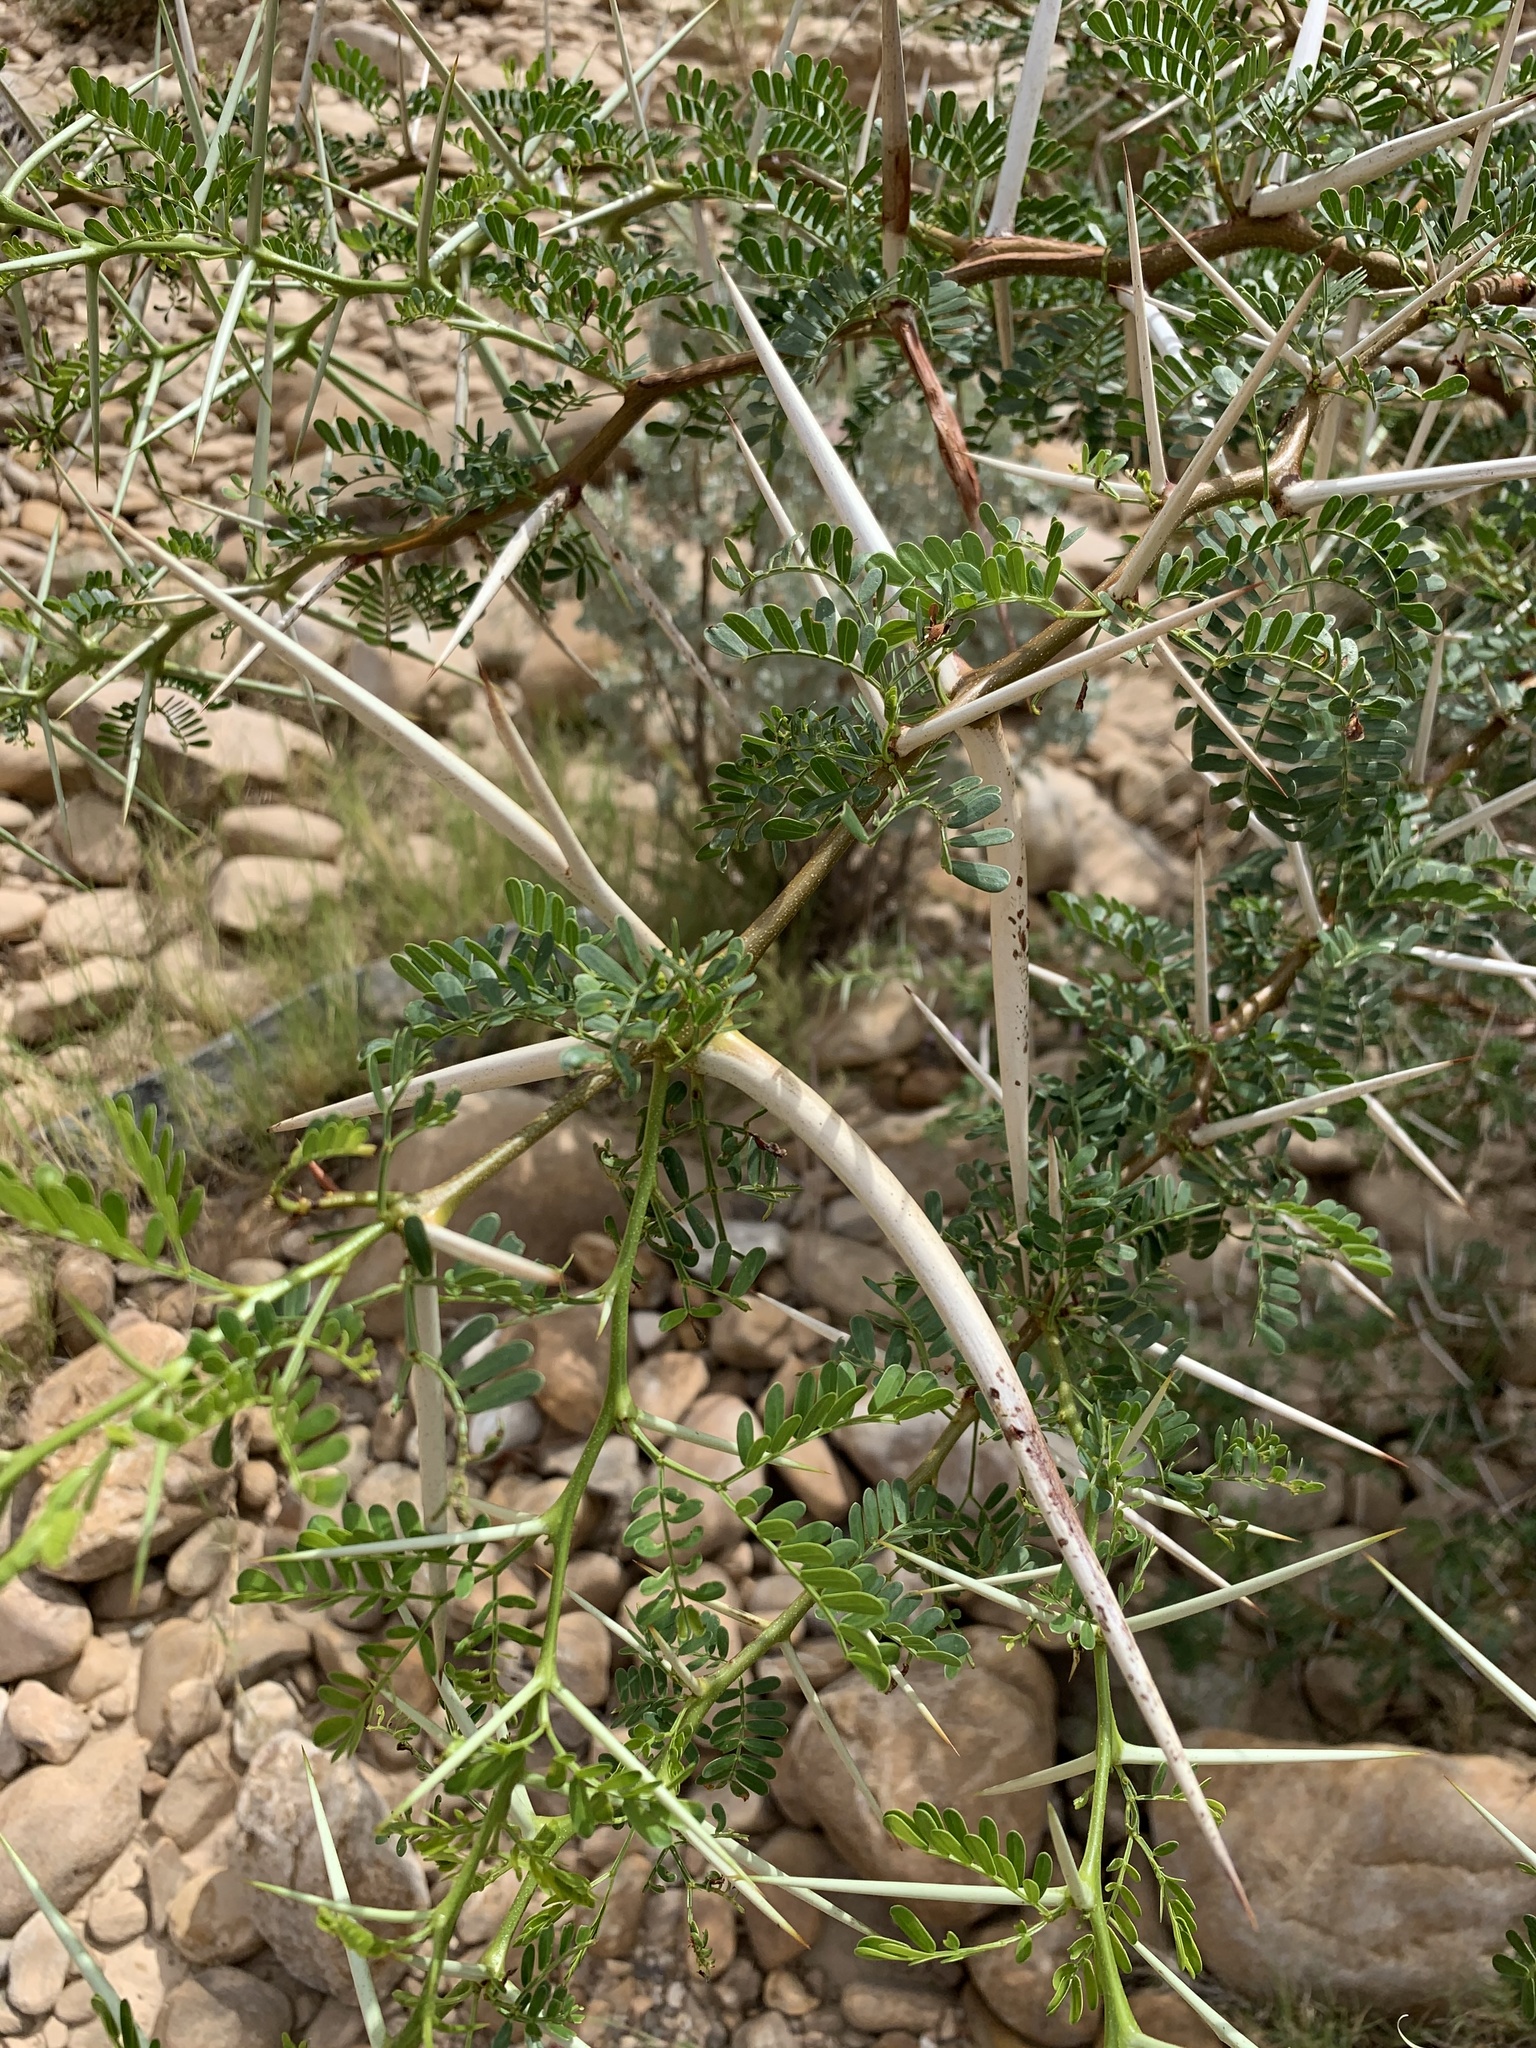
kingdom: Plantae
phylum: Tracheophyta
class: Magnoliopsida
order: Fabales
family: Fabaceae
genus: Vachellia
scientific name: Vachellia karroo
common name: Sweet thorn
